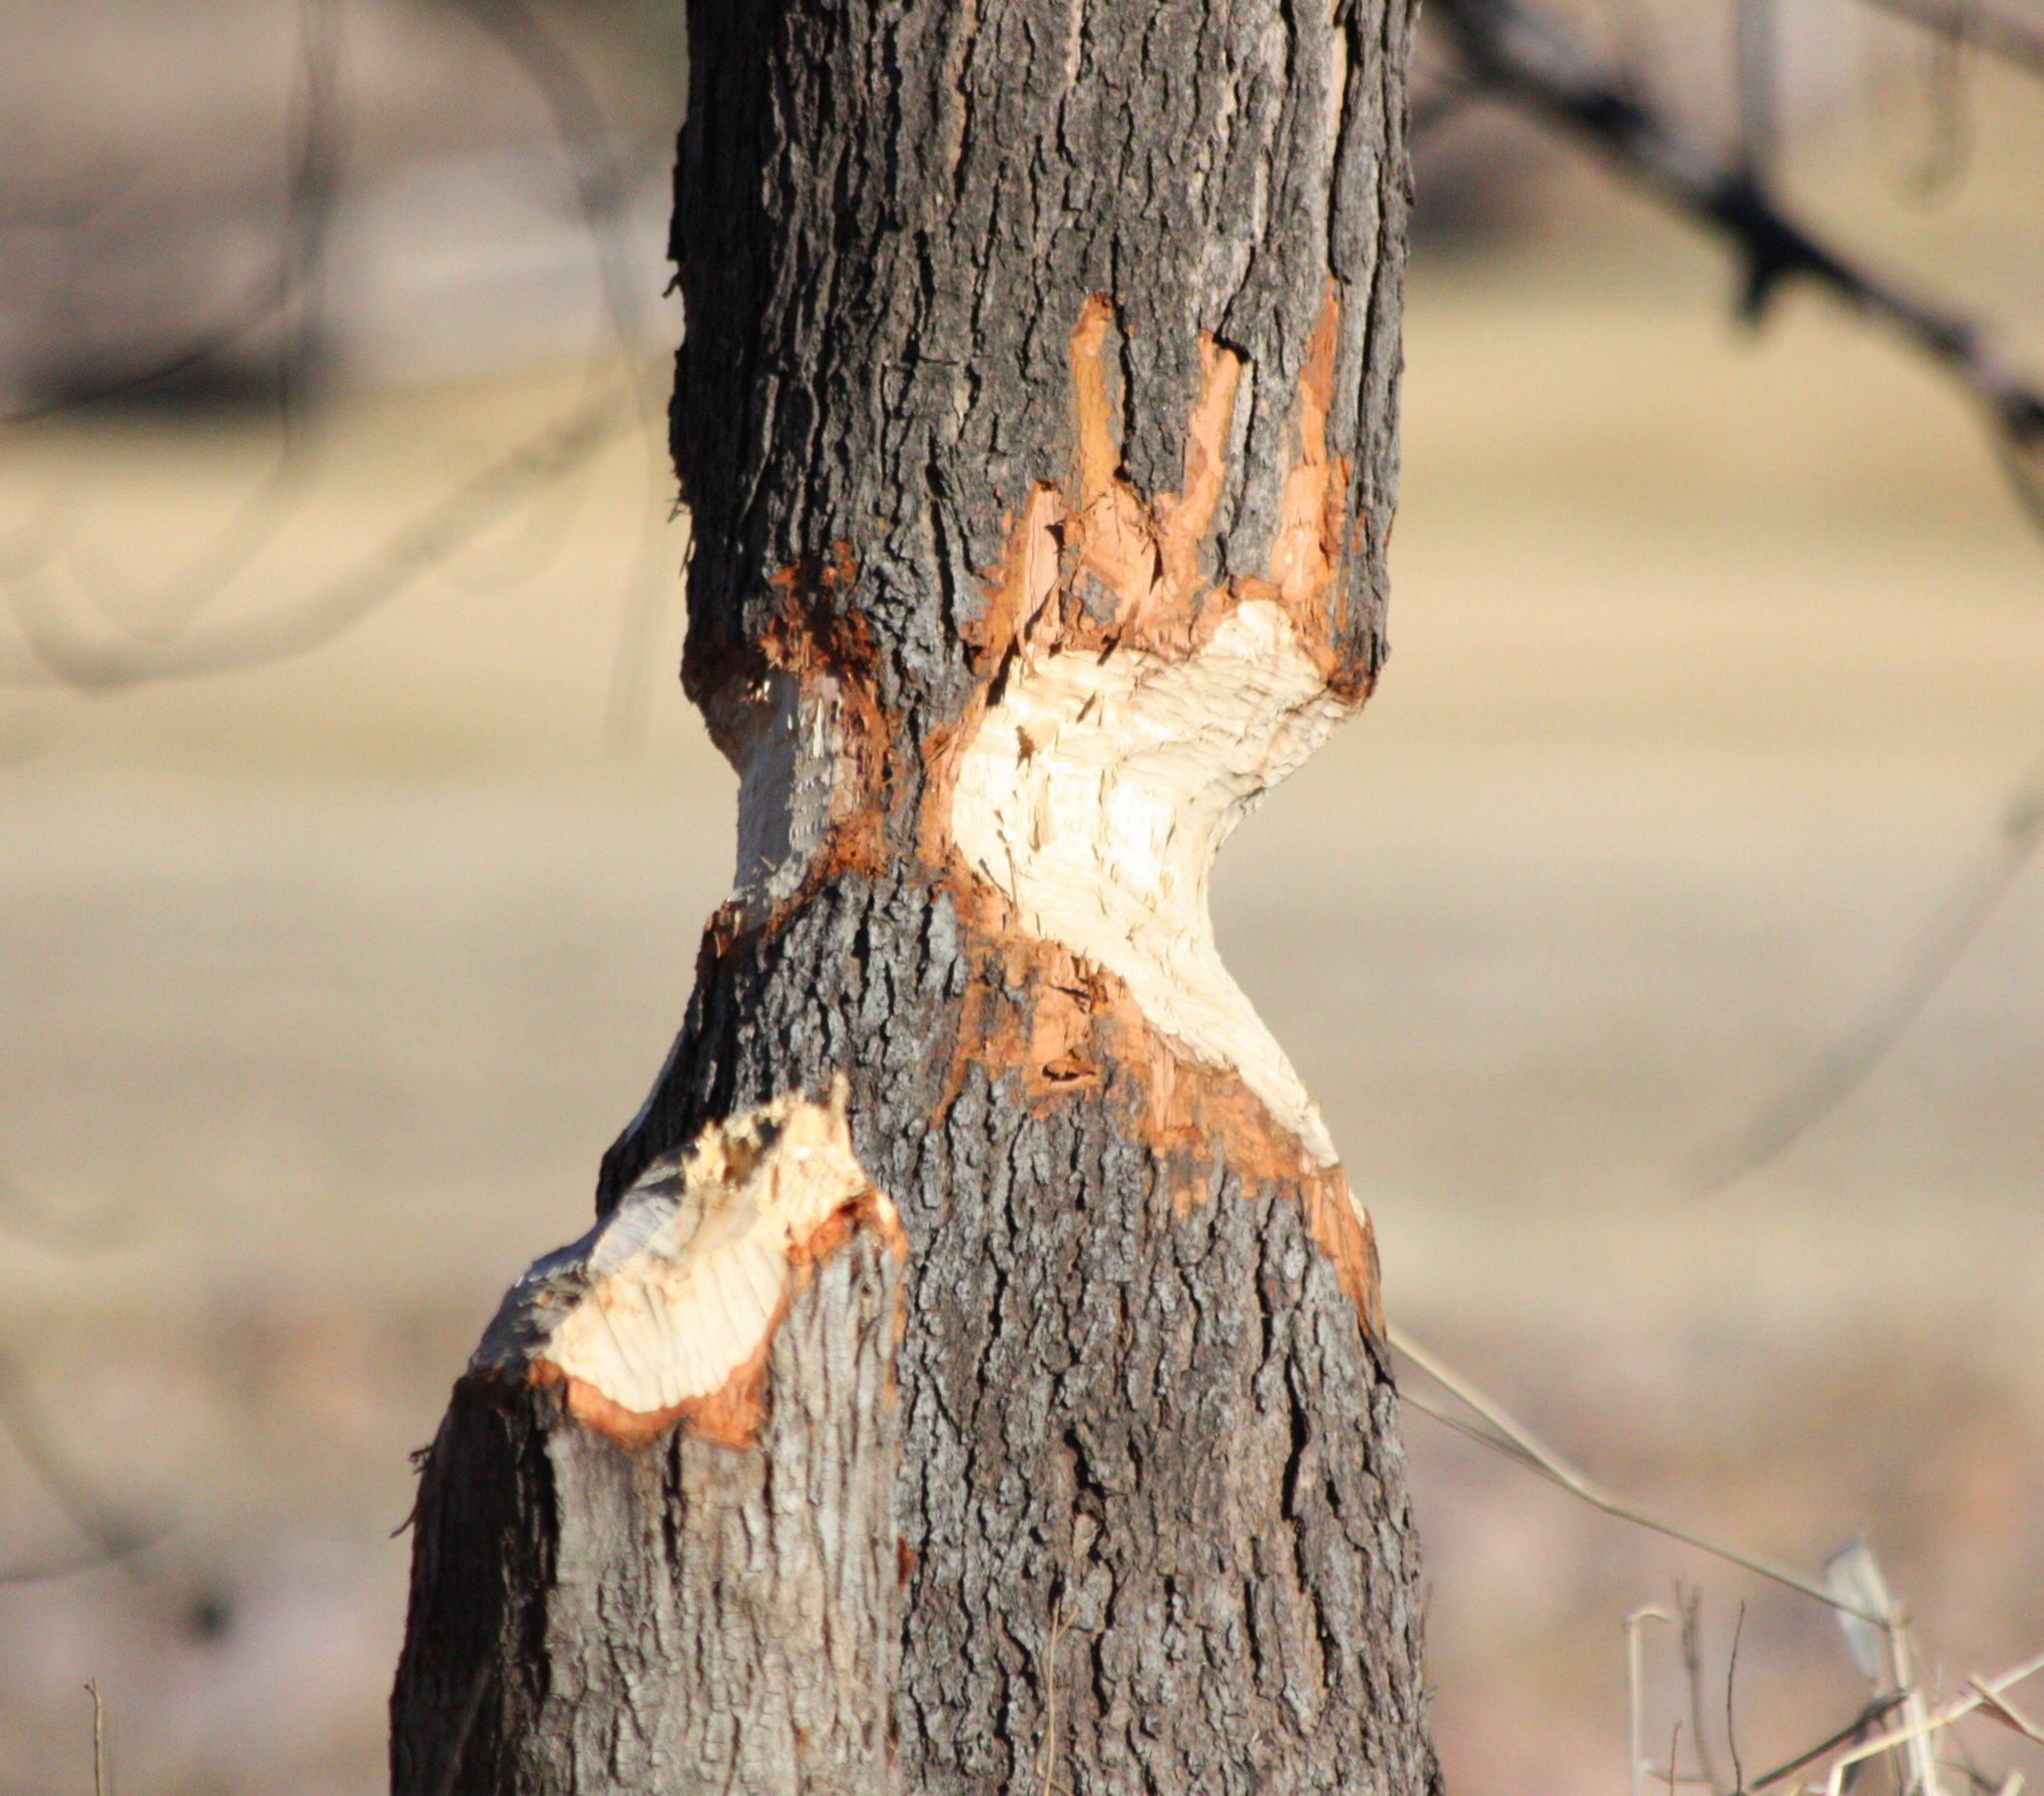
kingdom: Animalia
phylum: Chordata
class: Mammalia
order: Rodentia
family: Castoridae
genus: Castor
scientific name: Castor canadensis
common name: American beaver
